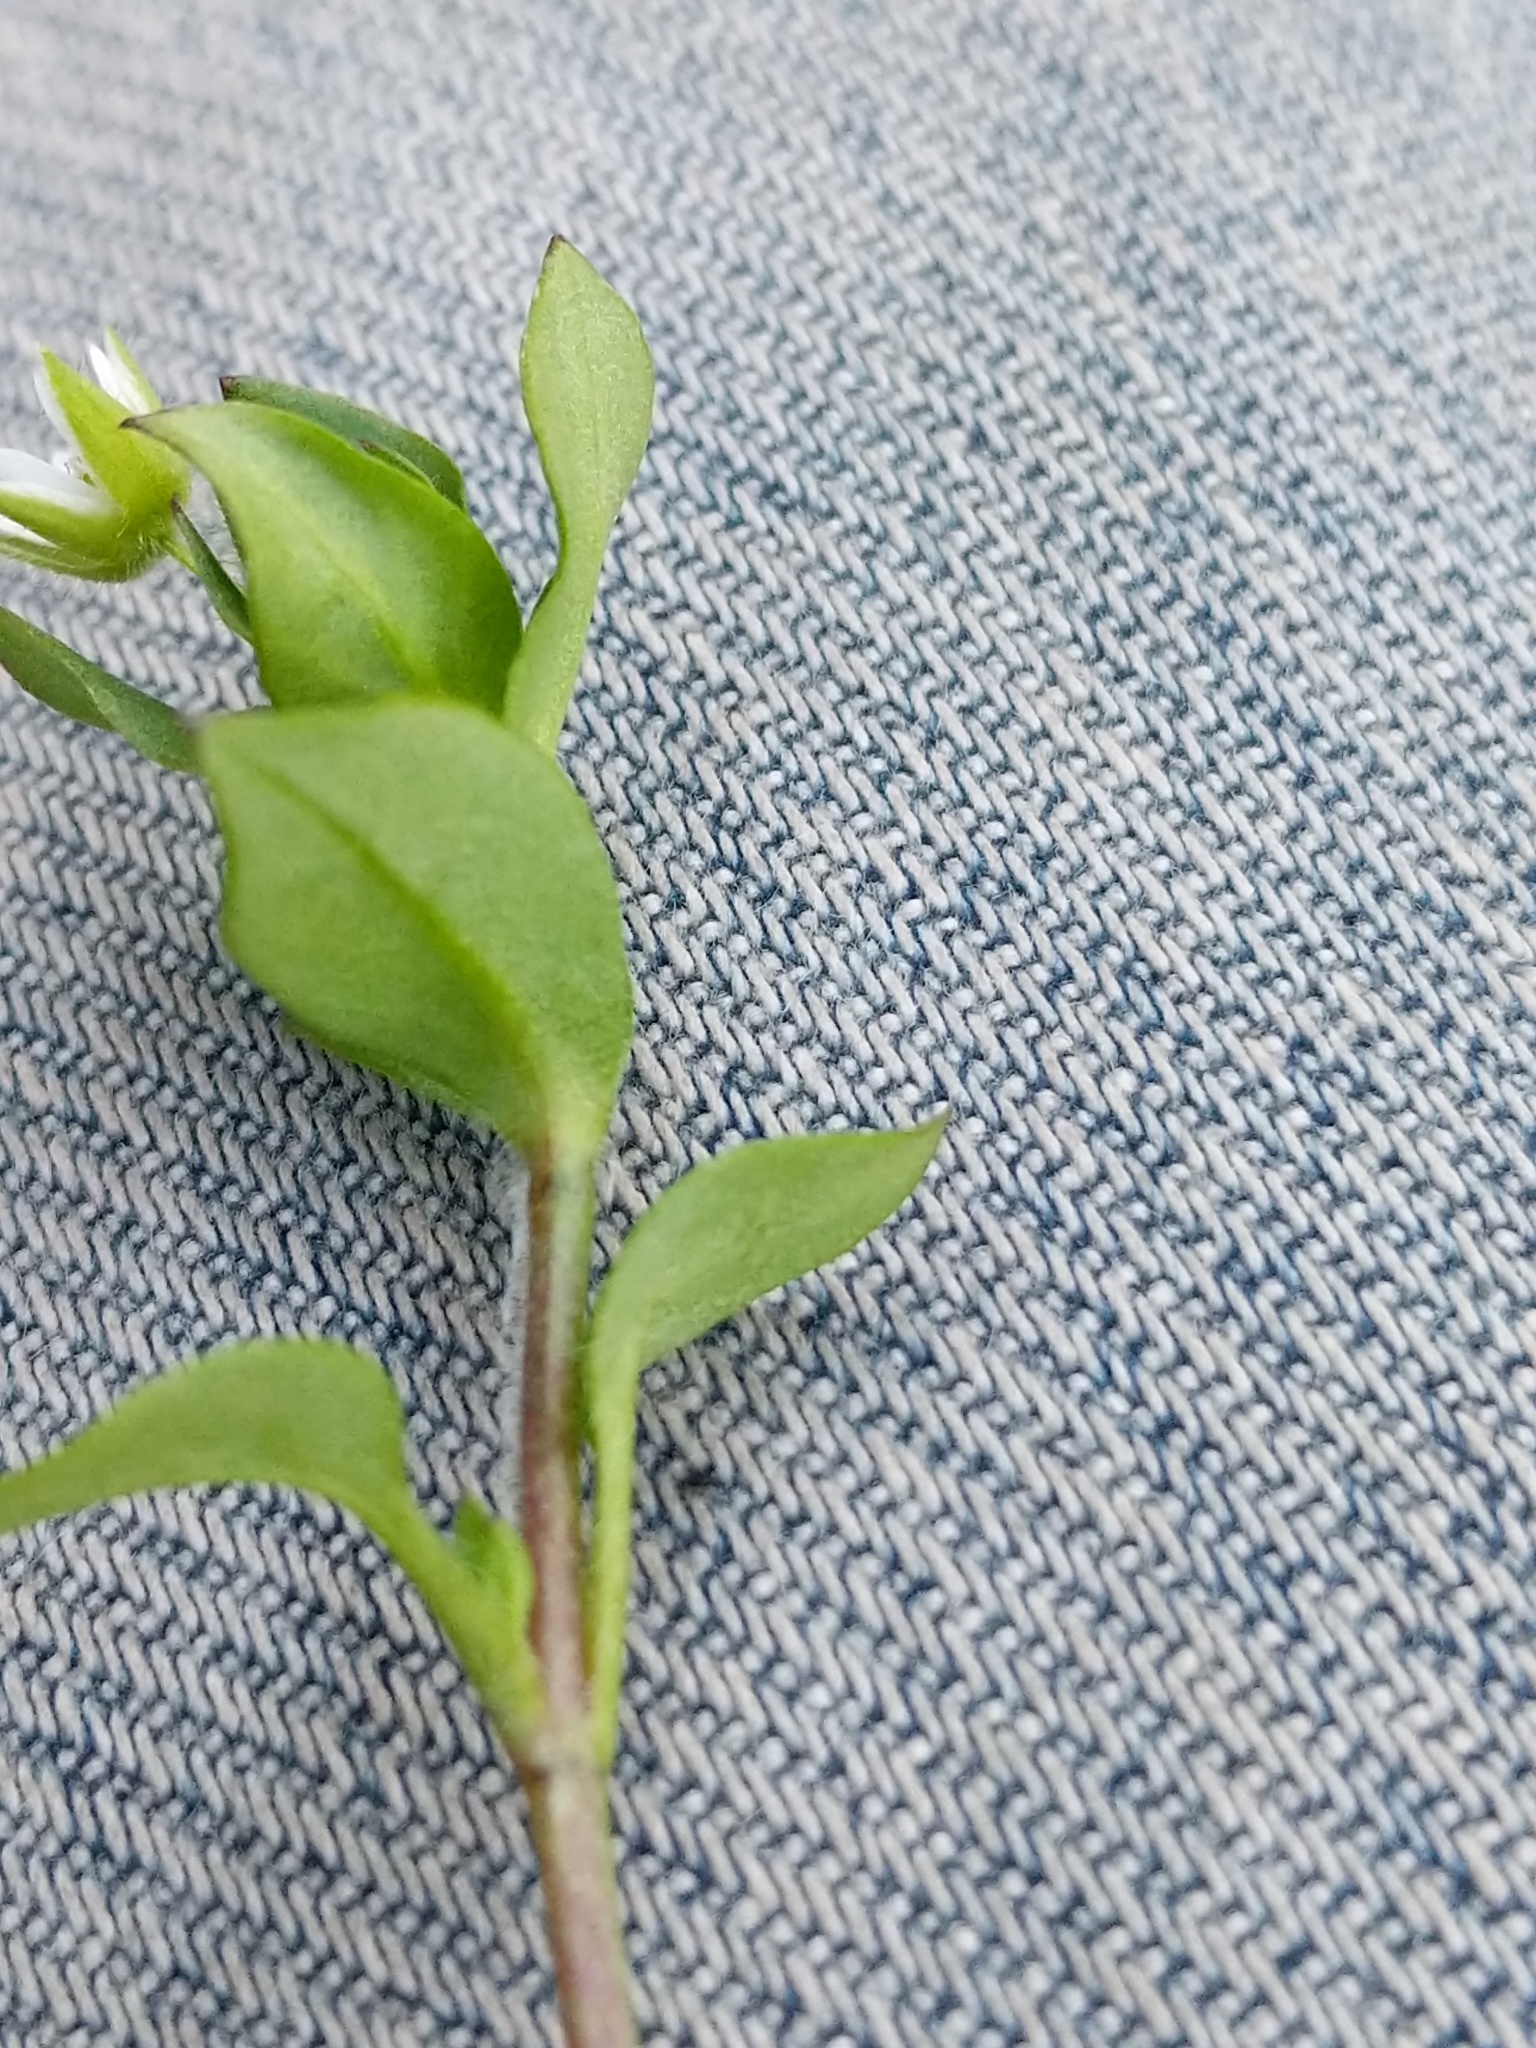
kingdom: Plantae
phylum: Tracheophyta
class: Magnoliopsida
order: Caryophyllales
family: Caryophyllaceae
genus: Stellaria
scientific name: Stellaria media
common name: Common chickweed
